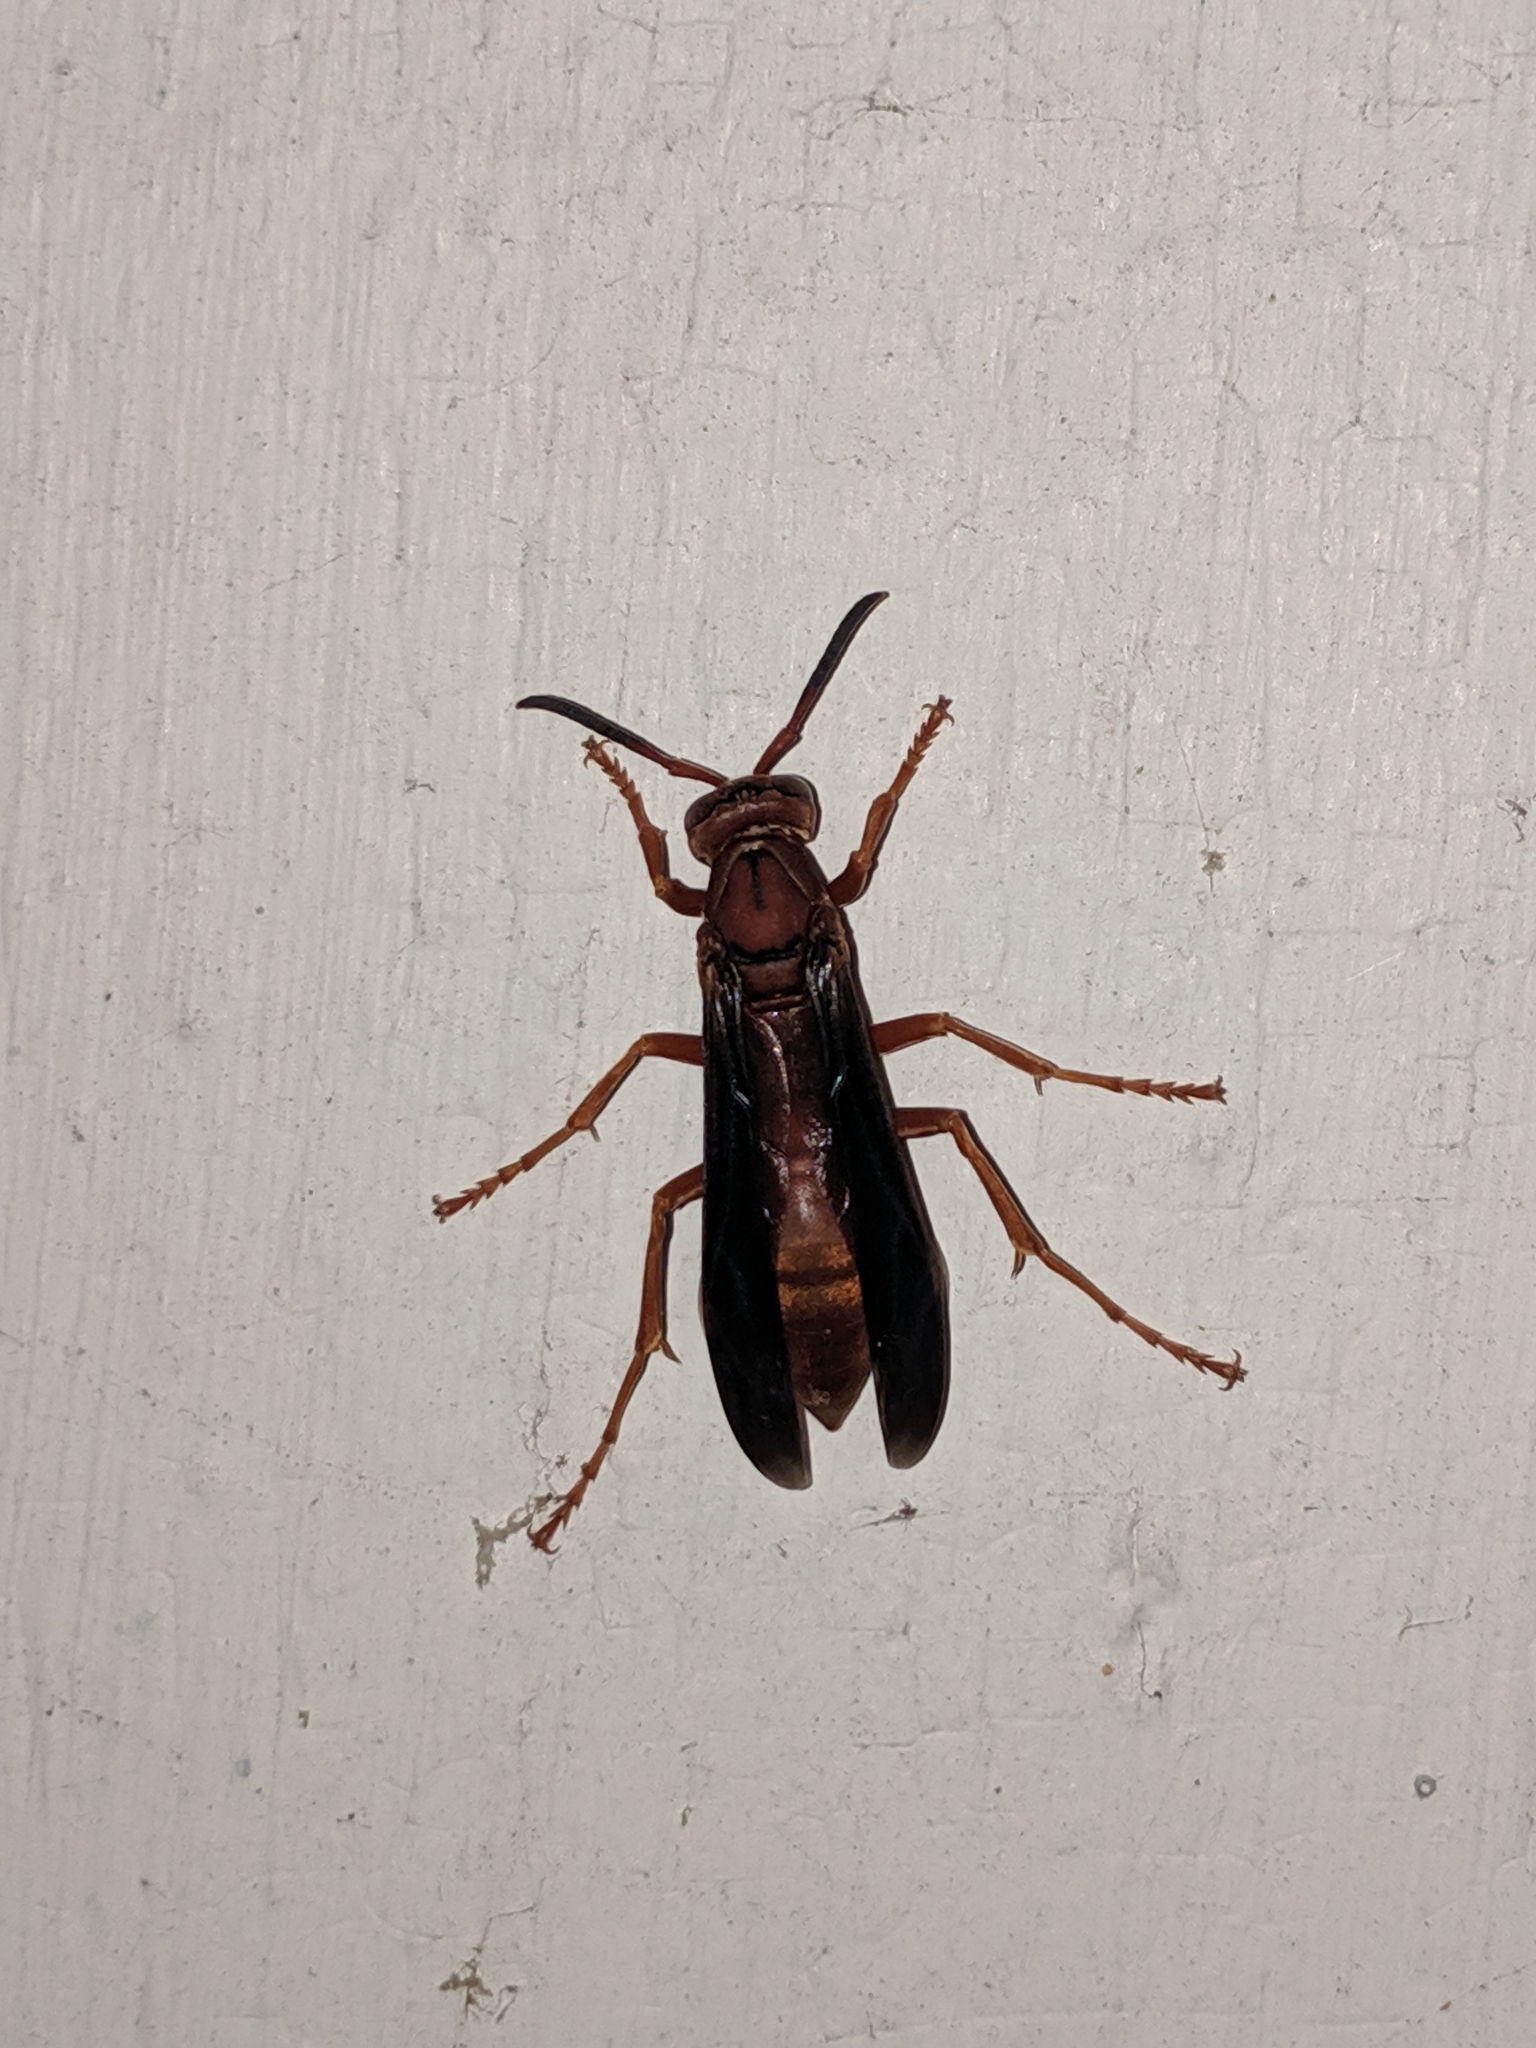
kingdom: Animalia
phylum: Arthropoda
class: Insecta
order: Hymenoptera
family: Vespidae
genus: Fuscopolistes
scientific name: Fuscopolistes
